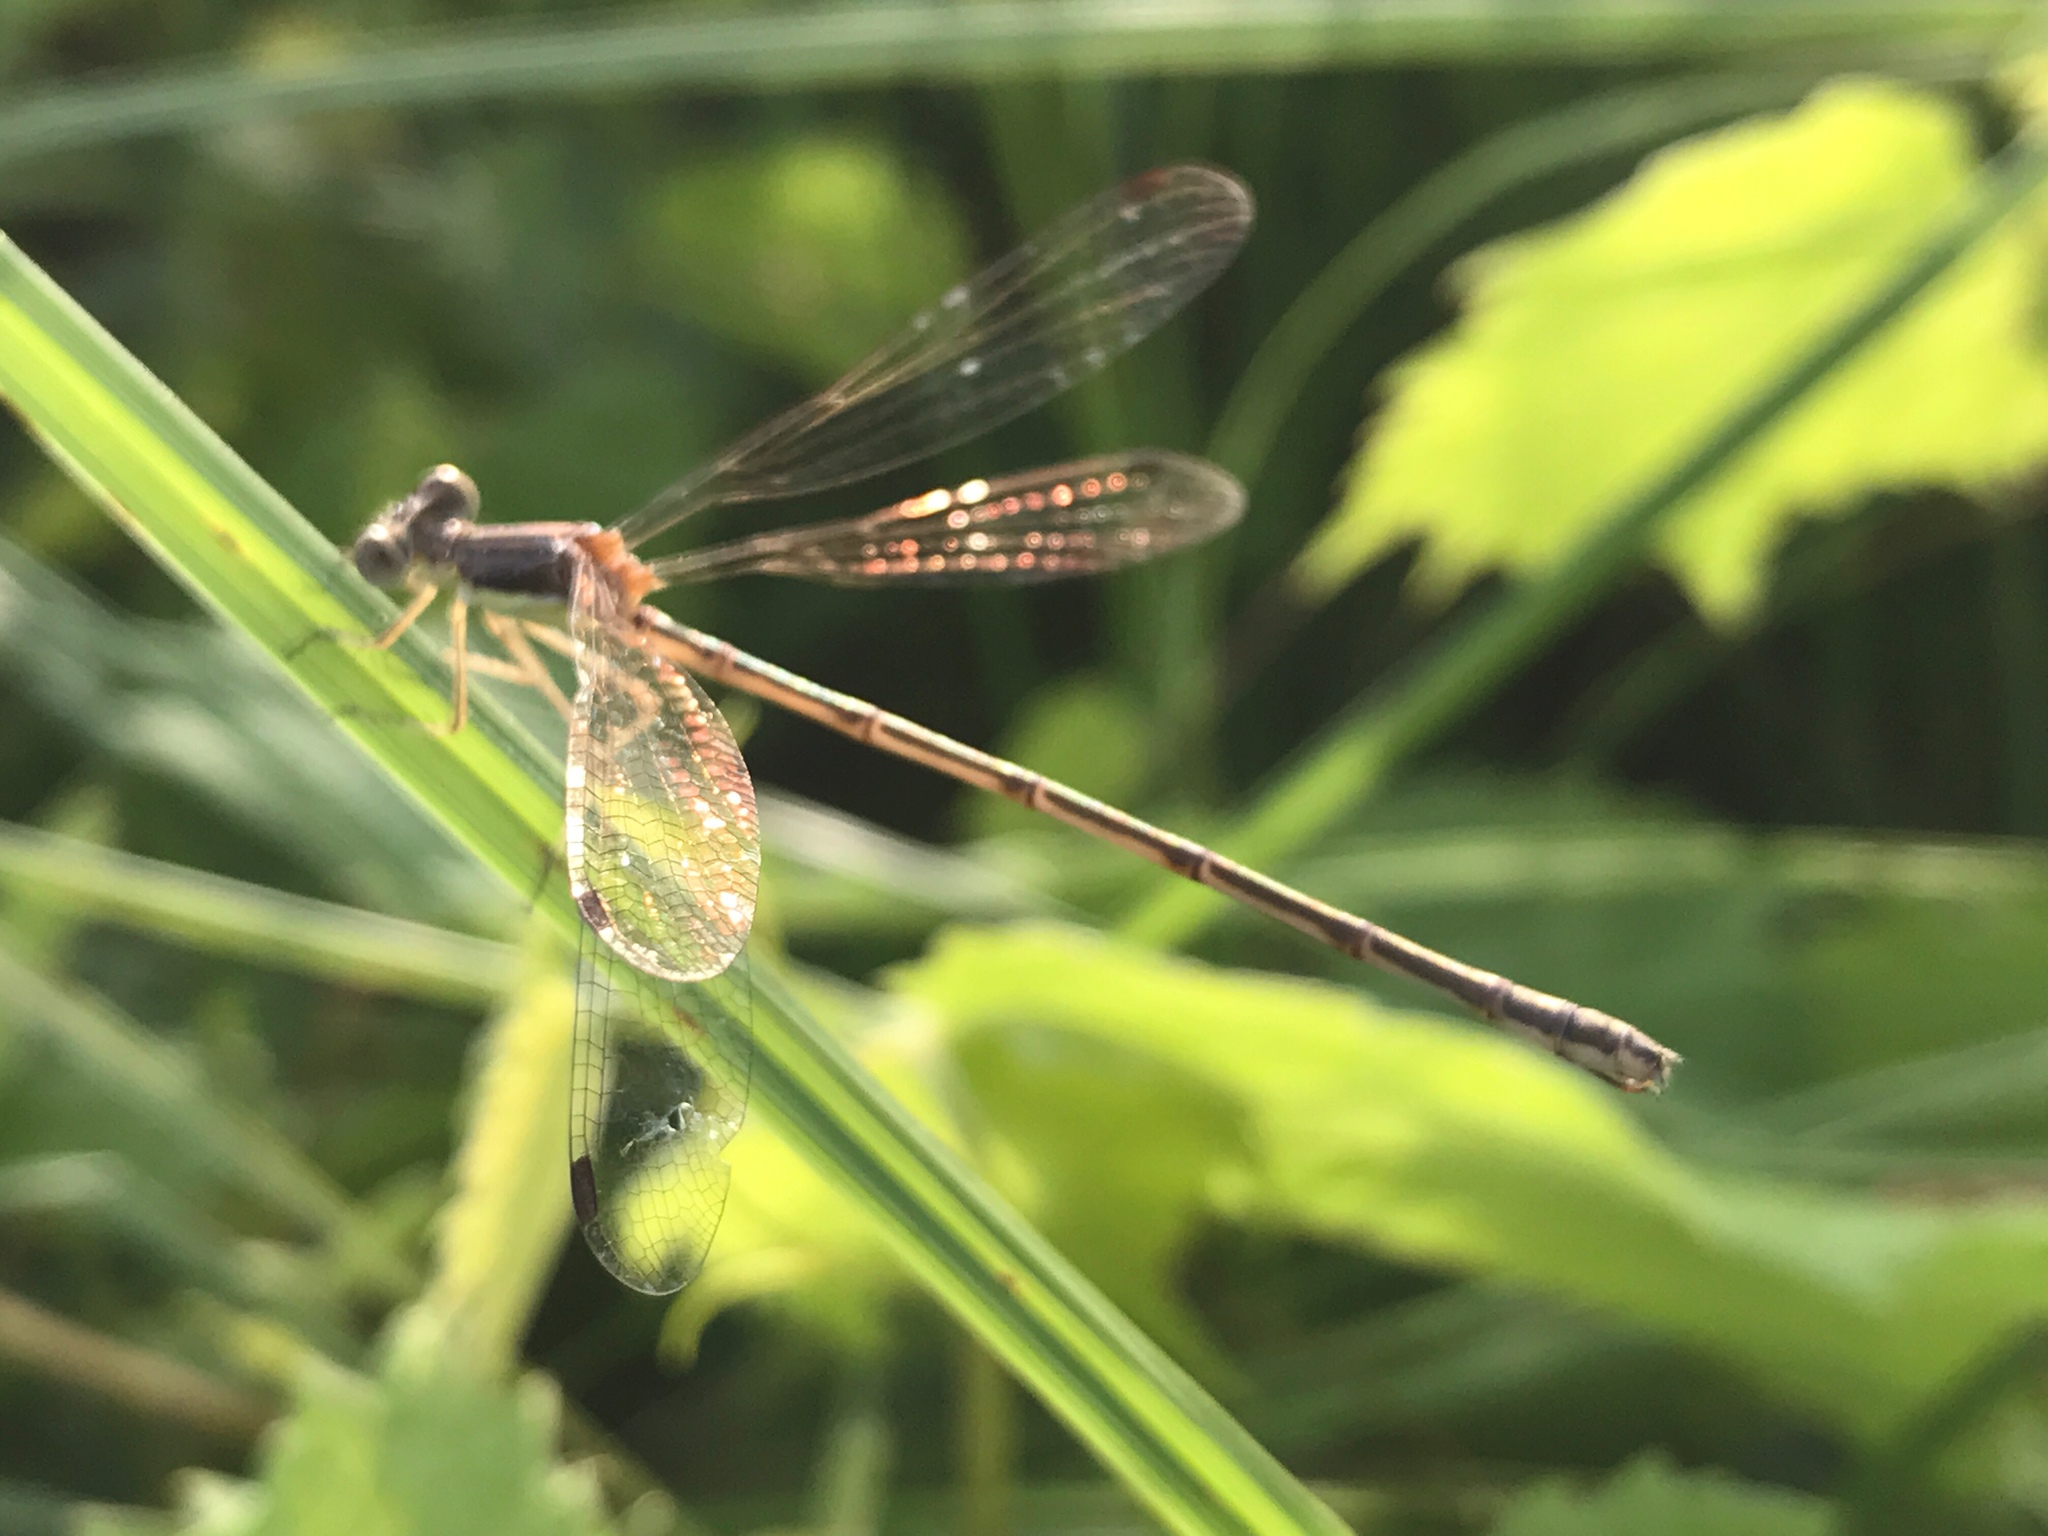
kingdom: Animalia
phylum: Arthropoda
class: Insecta
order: Odonata
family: Lestidae
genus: Lestes
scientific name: Lestes rectangularis
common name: Slender spreadwing
